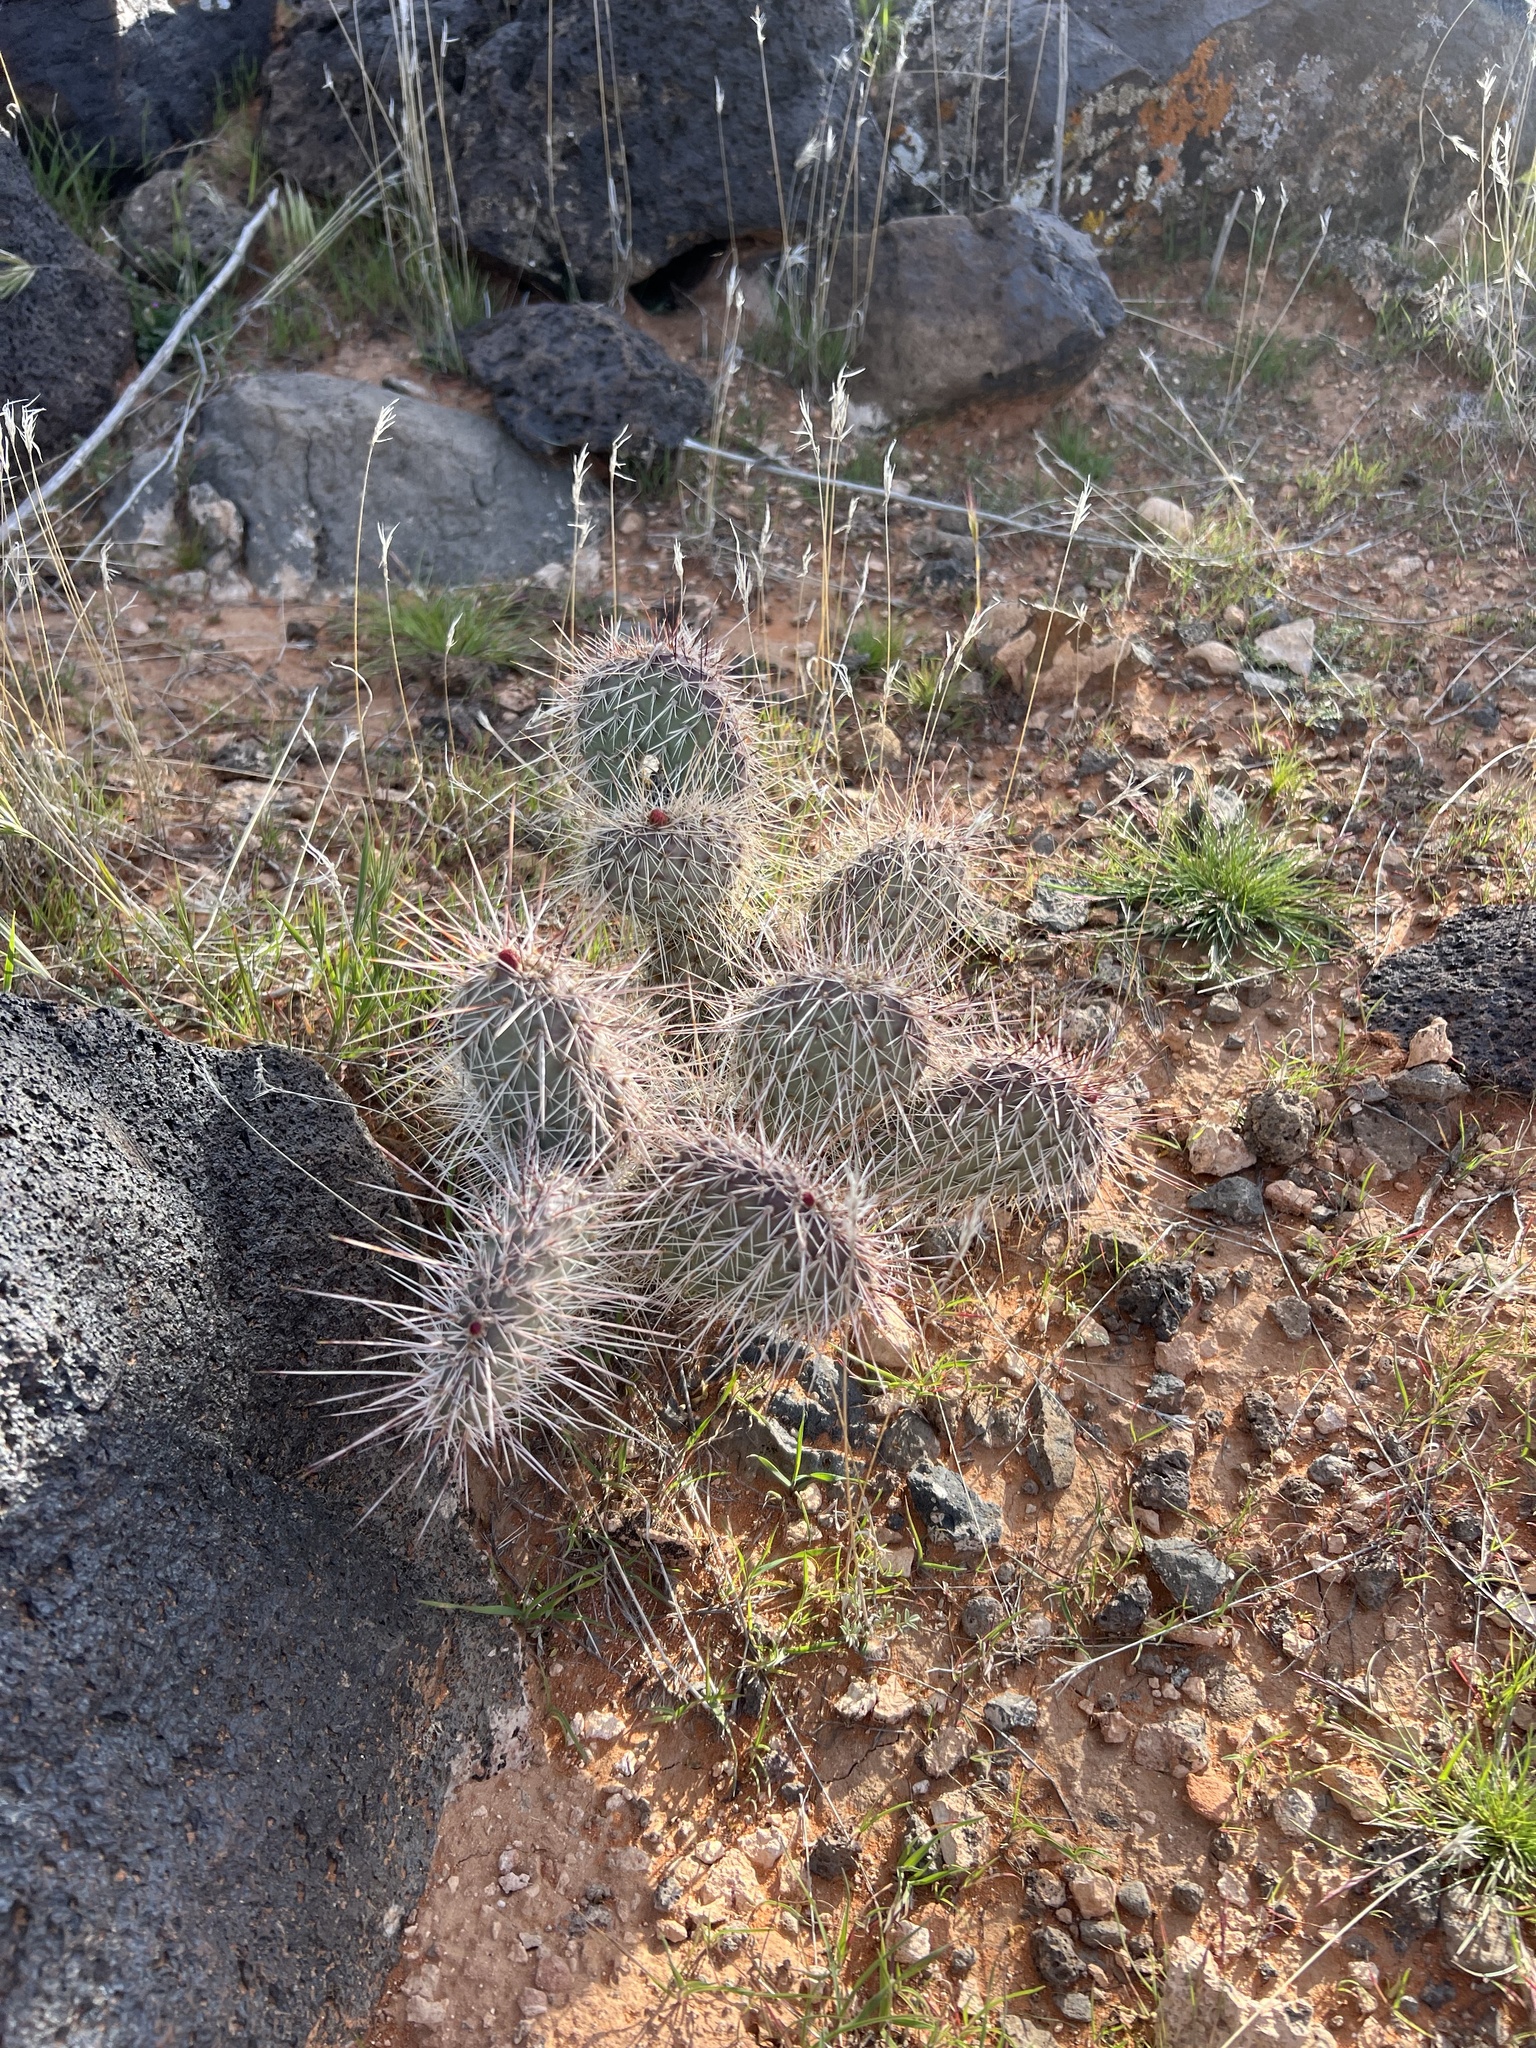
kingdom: Plantae
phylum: Tracheophyta
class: Magnoliopsida
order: Caryophyllales
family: Cactaceae
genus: Opuntia
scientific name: Opuntia polyacantha
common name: Plains prickly-pear
